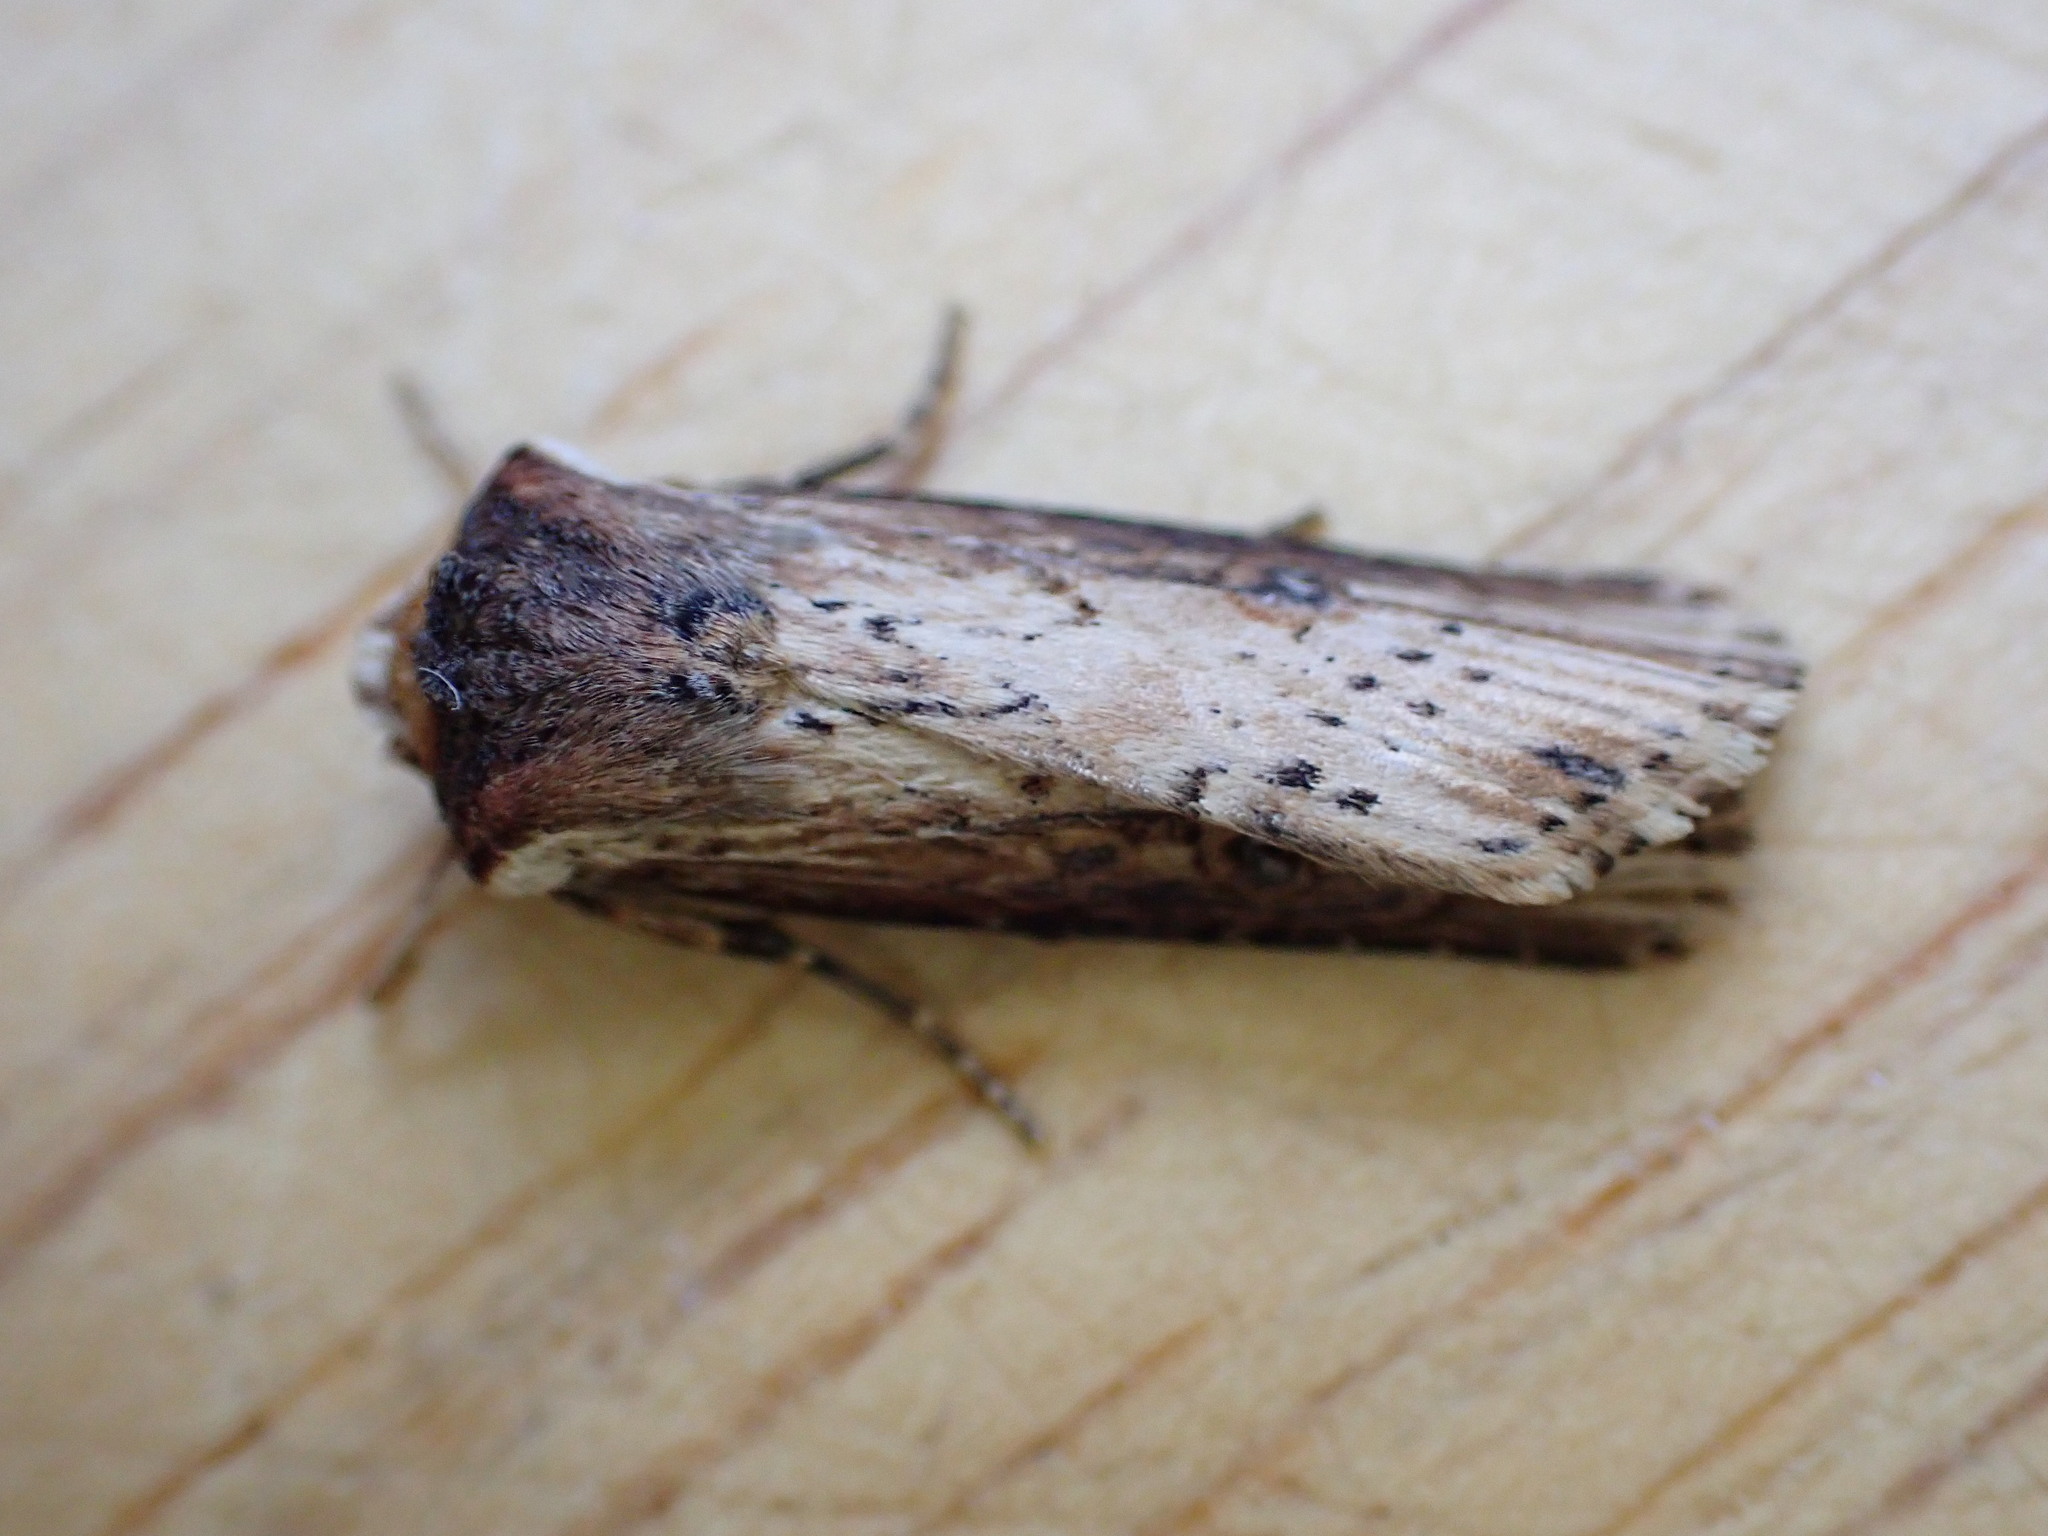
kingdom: Animalia
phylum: Arthropoda
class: Insecta
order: Lepidoptera
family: Noctuidae
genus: Axylia
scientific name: Axylia putris
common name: Flame
